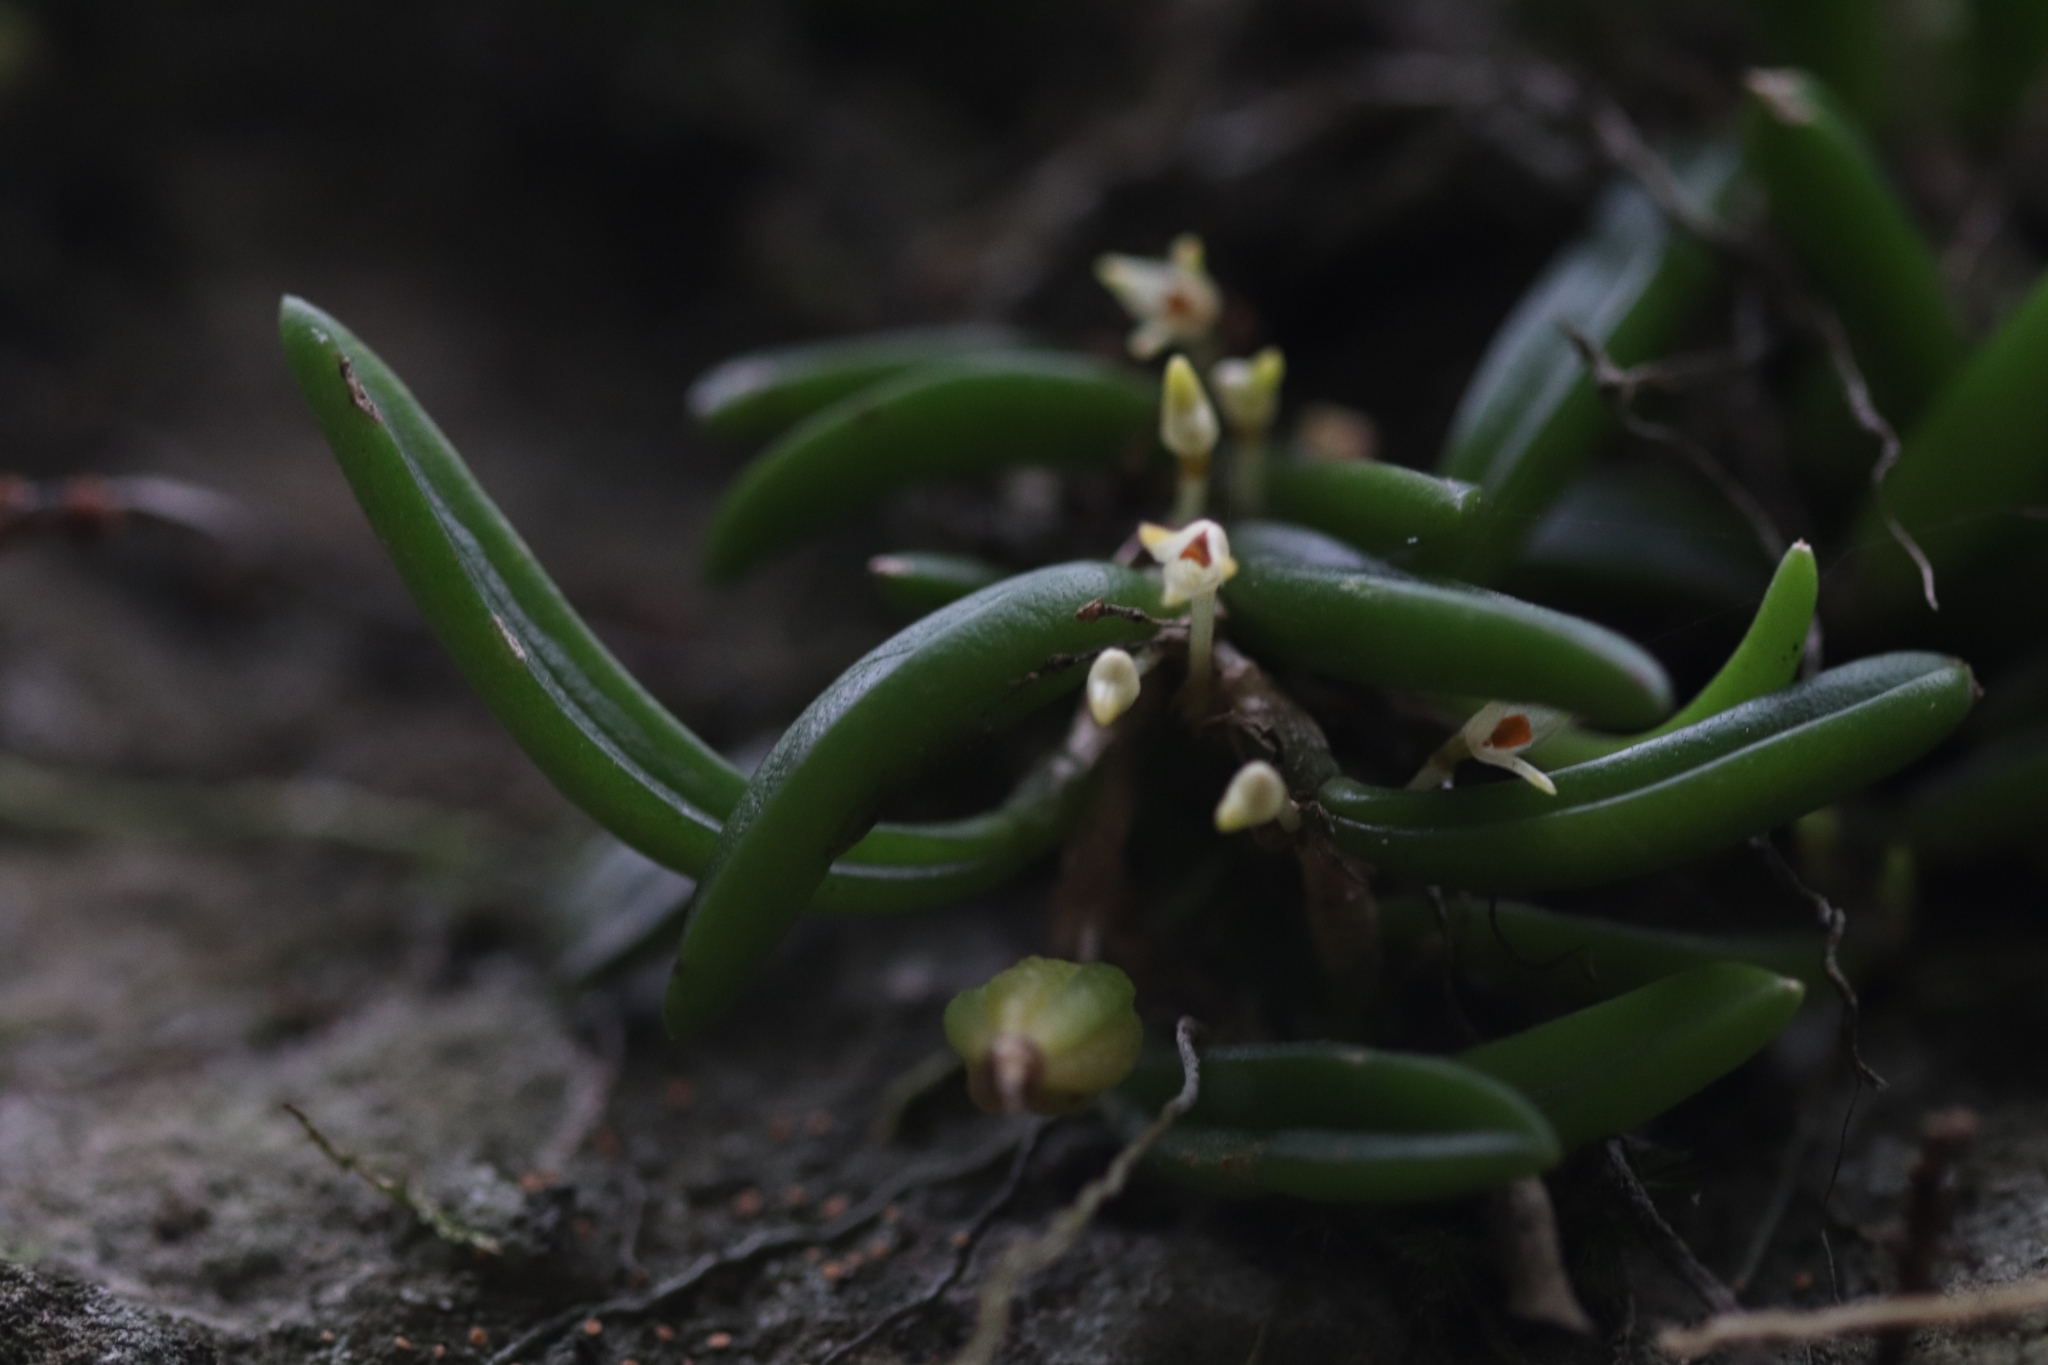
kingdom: Plantae
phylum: Tracheophyta
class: Liliopsida
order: Asparagales
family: Orchidaceae
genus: Bulbophyllum
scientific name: Bulbophyllum shepherdii
